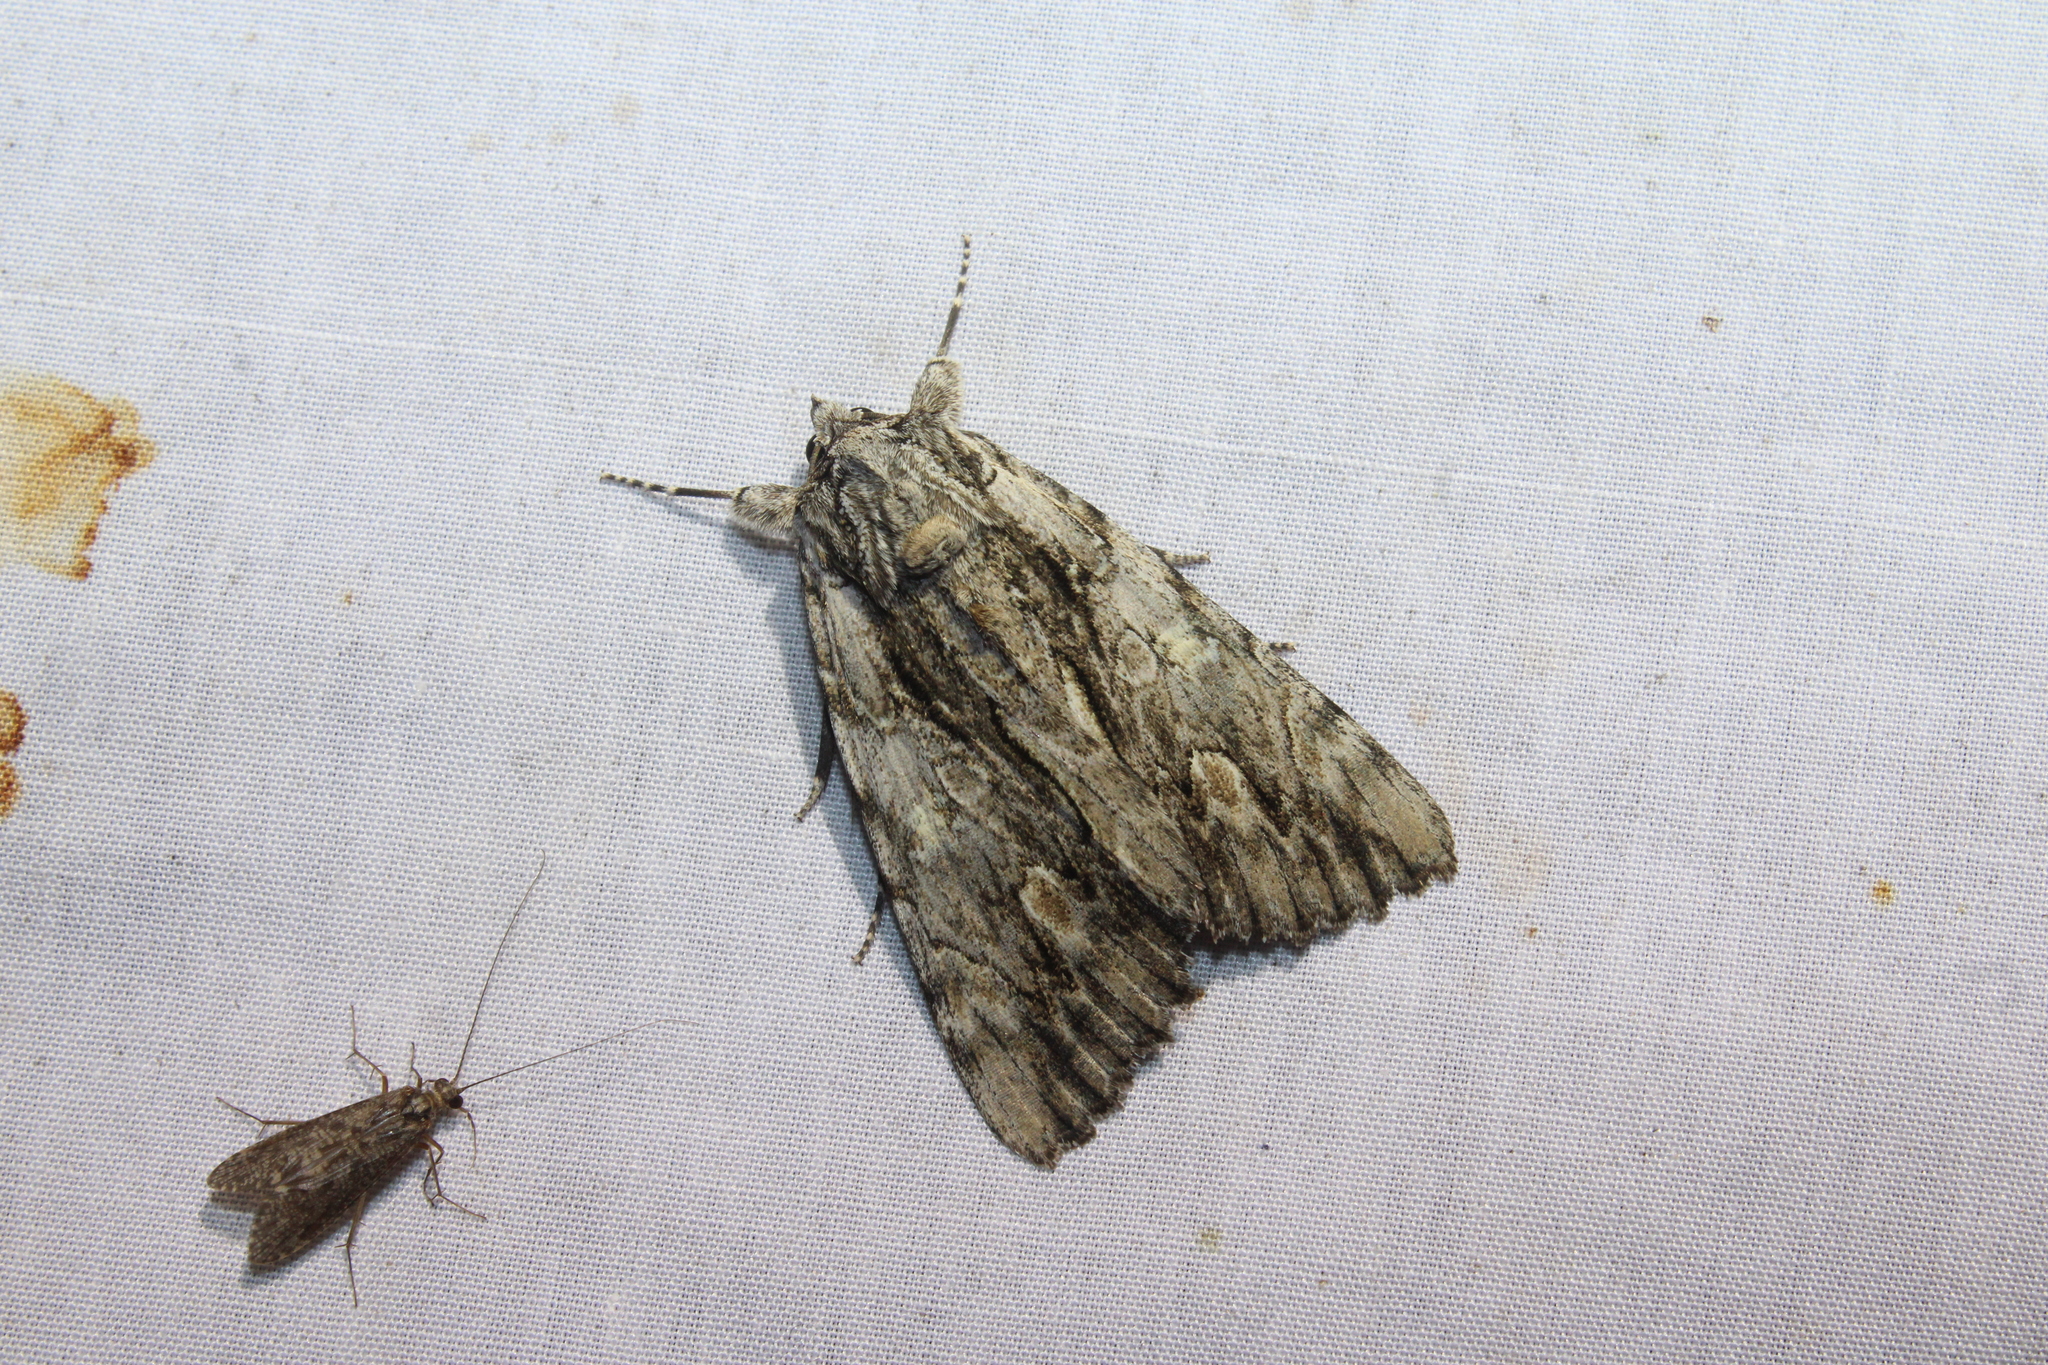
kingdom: Animalia
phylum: Arthropoda
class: Insecta
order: Lepidoptera
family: Erebidae
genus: Catocala
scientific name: Catocala coccinata
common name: Scarlet underwing
